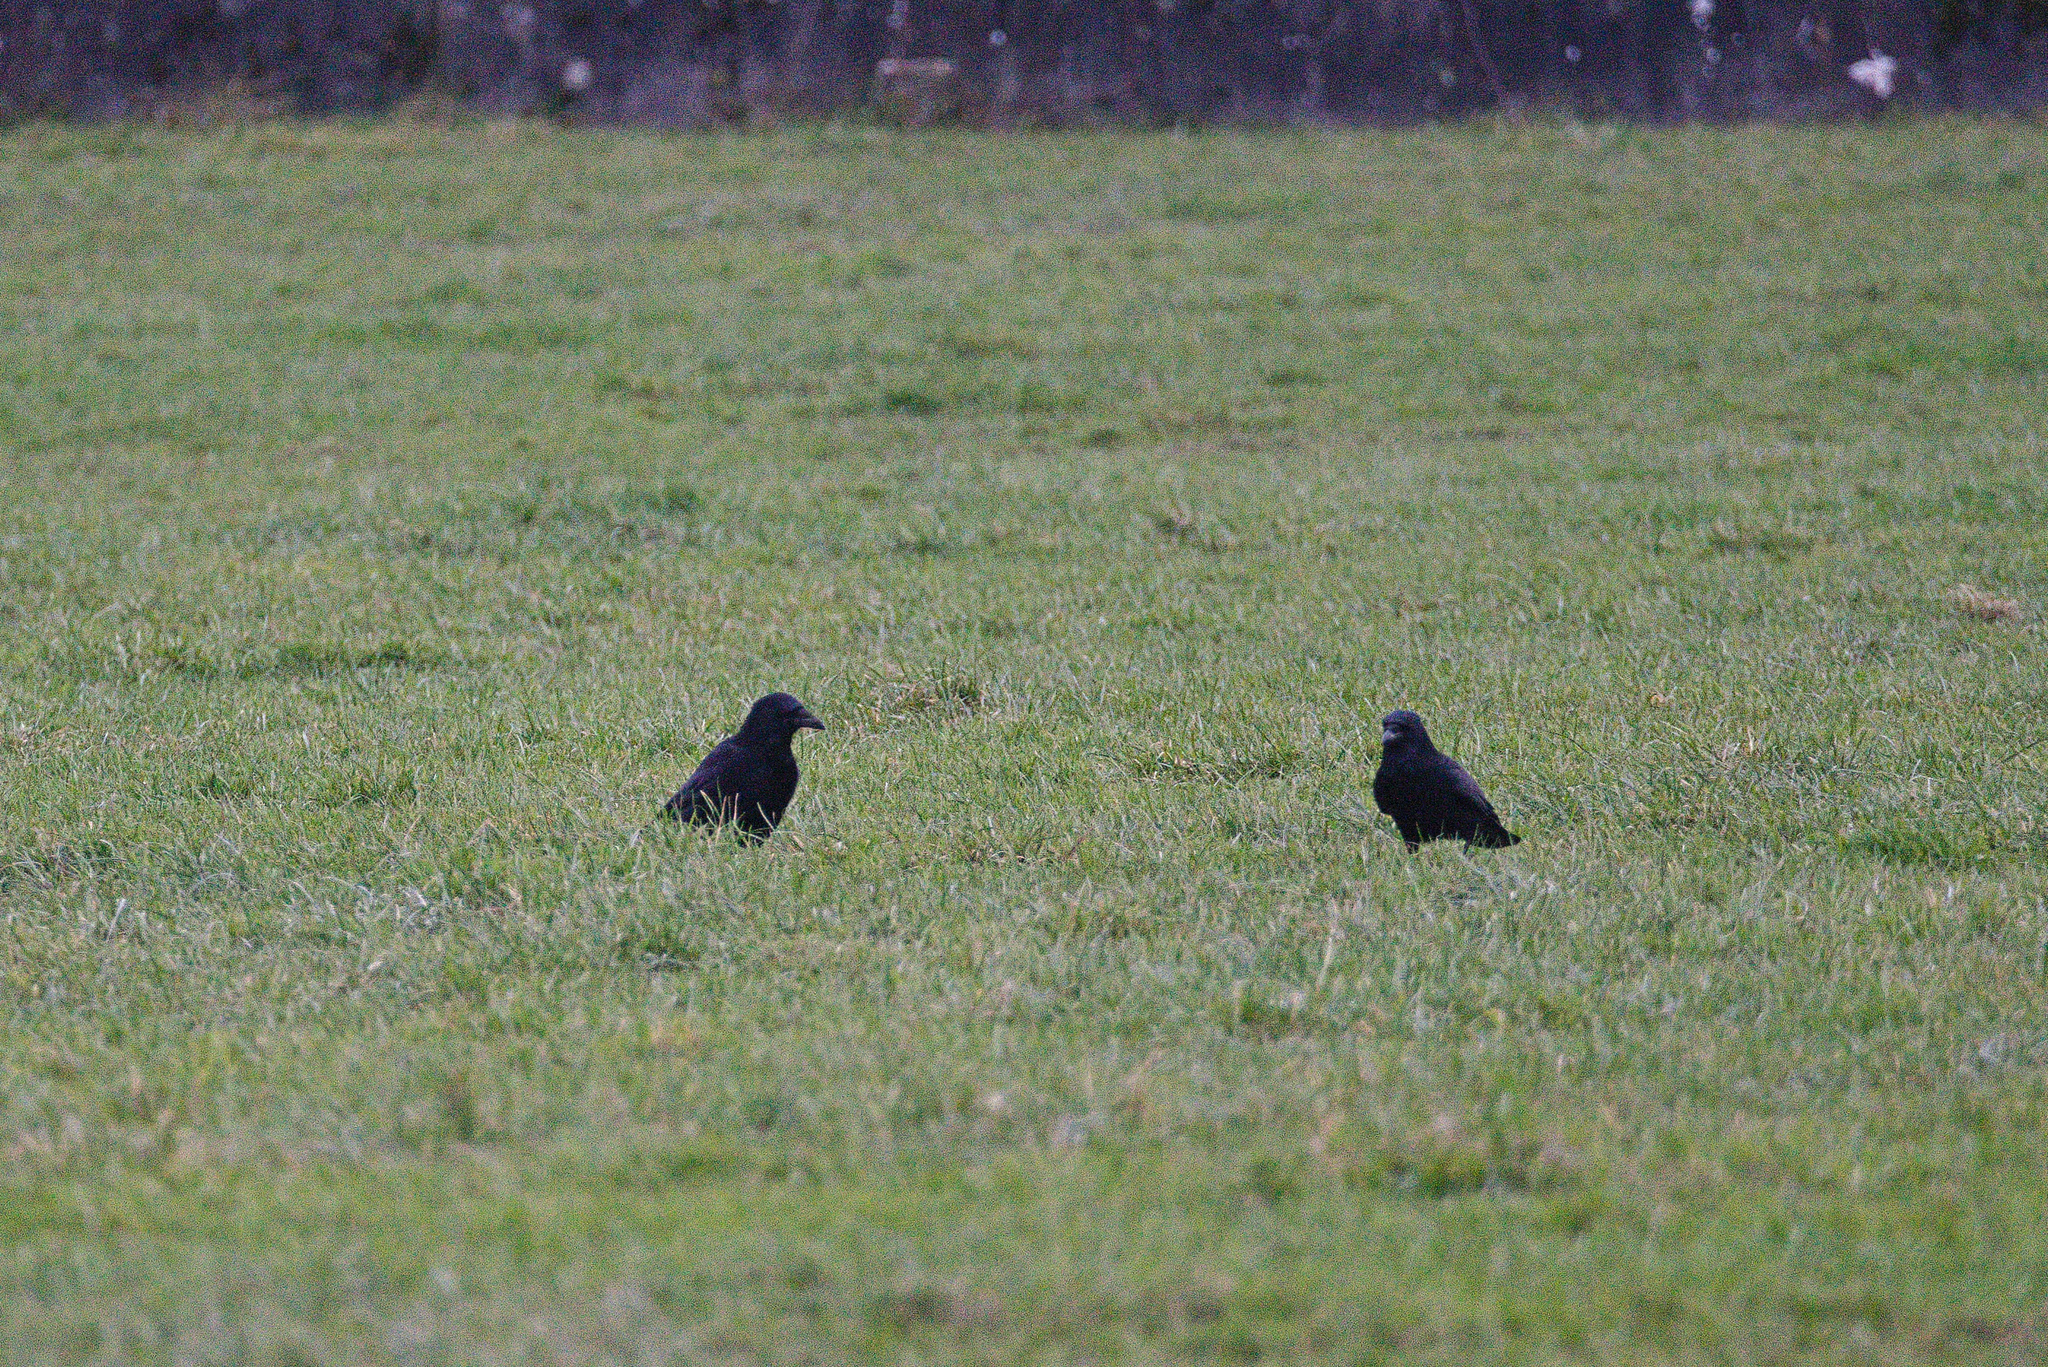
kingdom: Animalia
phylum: Chordata
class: Aves
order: Passeriformes
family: Corvidae
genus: Corvus
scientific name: Corvus corone
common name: Carrion crow
